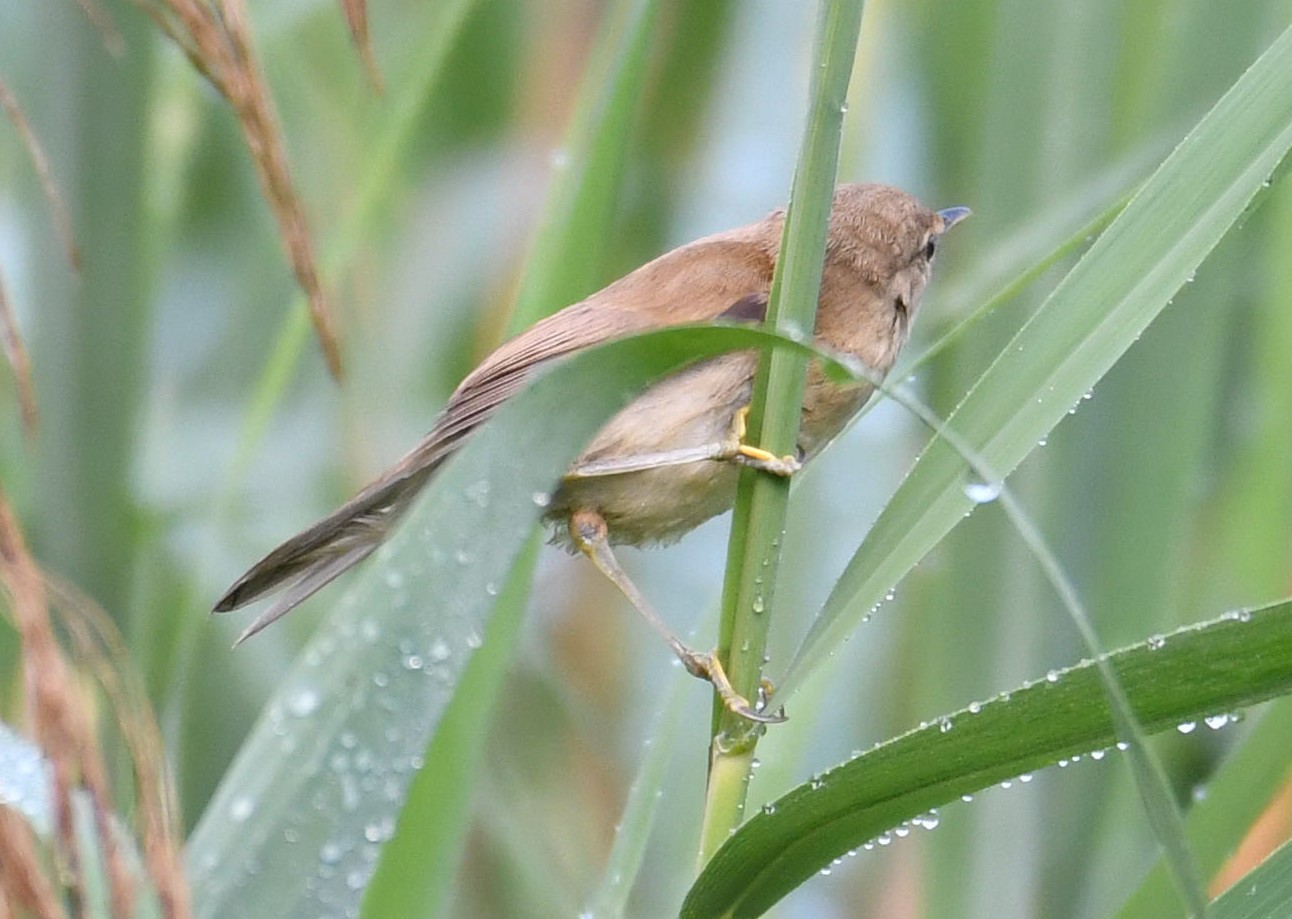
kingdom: Animalia
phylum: Chordata
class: Aves
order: Passeriformes
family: Acrocephalidae
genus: Acrocephalus
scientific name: Acrocephalus scirpaceus
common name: Eurasian reed warbler
